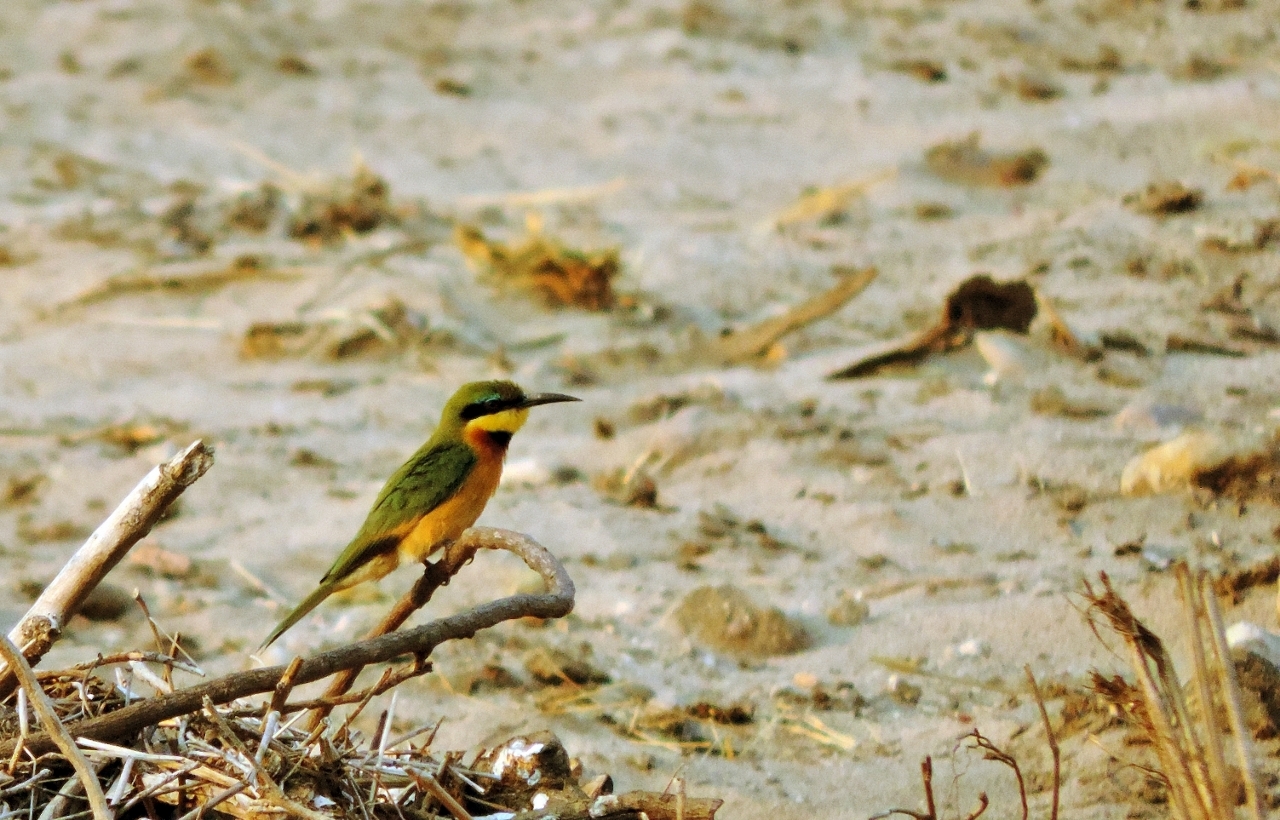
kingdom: Animalia
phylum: Chordata
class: Aves
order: Coraciiformes
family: Meropidae
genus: Merops
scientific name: Merops pusillus
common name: Little bee-eater
